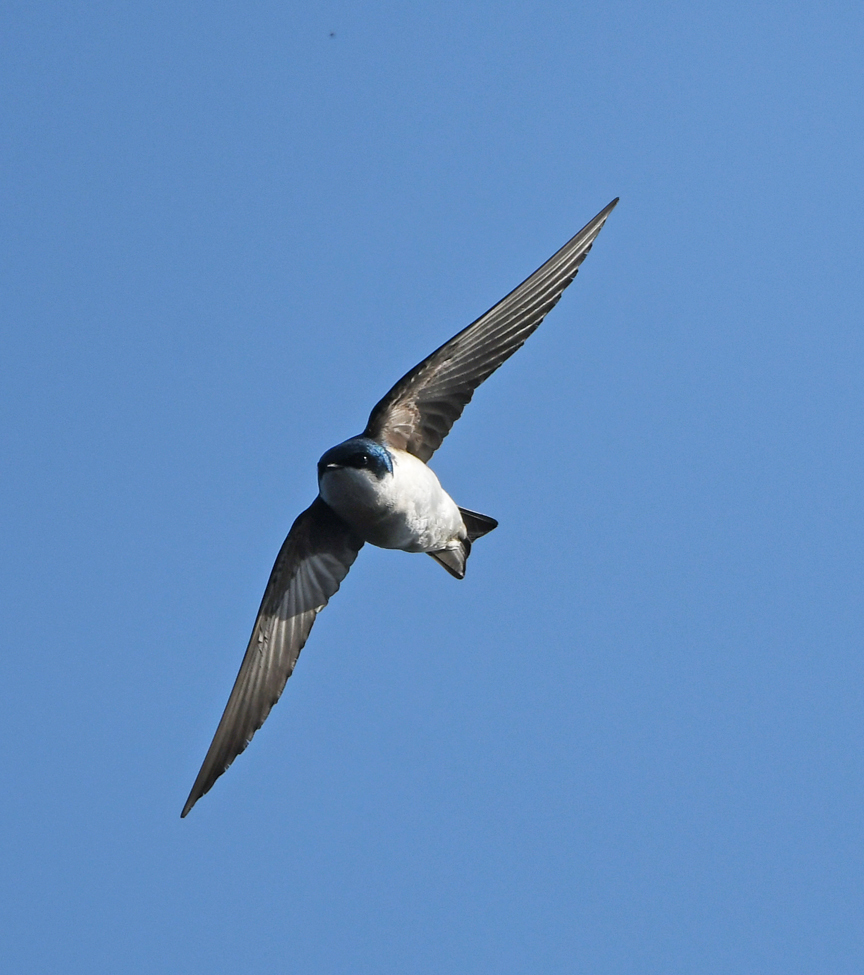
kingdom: Animalia
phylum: Chordata
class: Aves
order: Passeriformes
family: Hirundinidae
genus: Tachycineta
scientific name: Tachycineta bicolor
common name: Tree swallow
